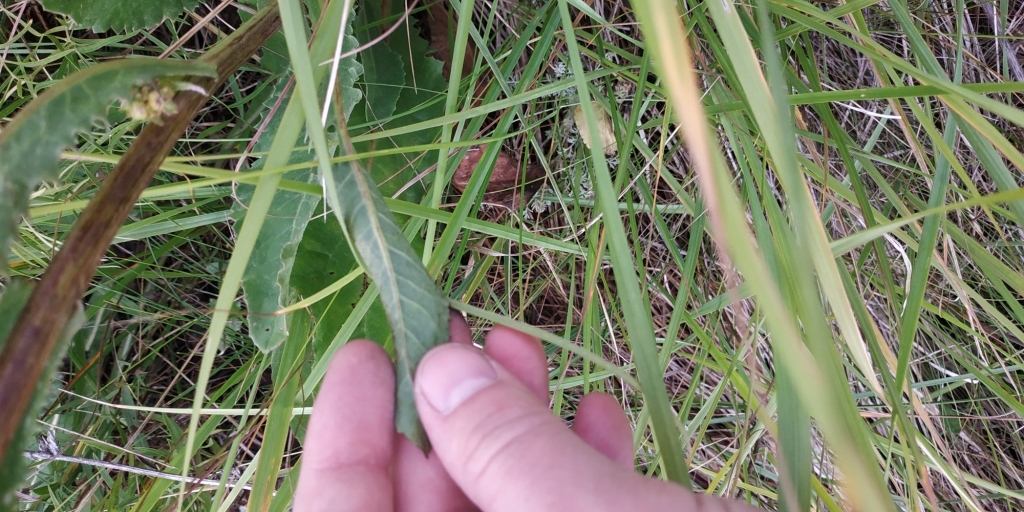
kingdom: Plantae
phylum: Tracheophyta
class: Magnoliopsida
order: Asterales
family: Asteraceae
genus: Jacobaea
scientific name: Jacobaea vulgaris
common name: Stinking willie
